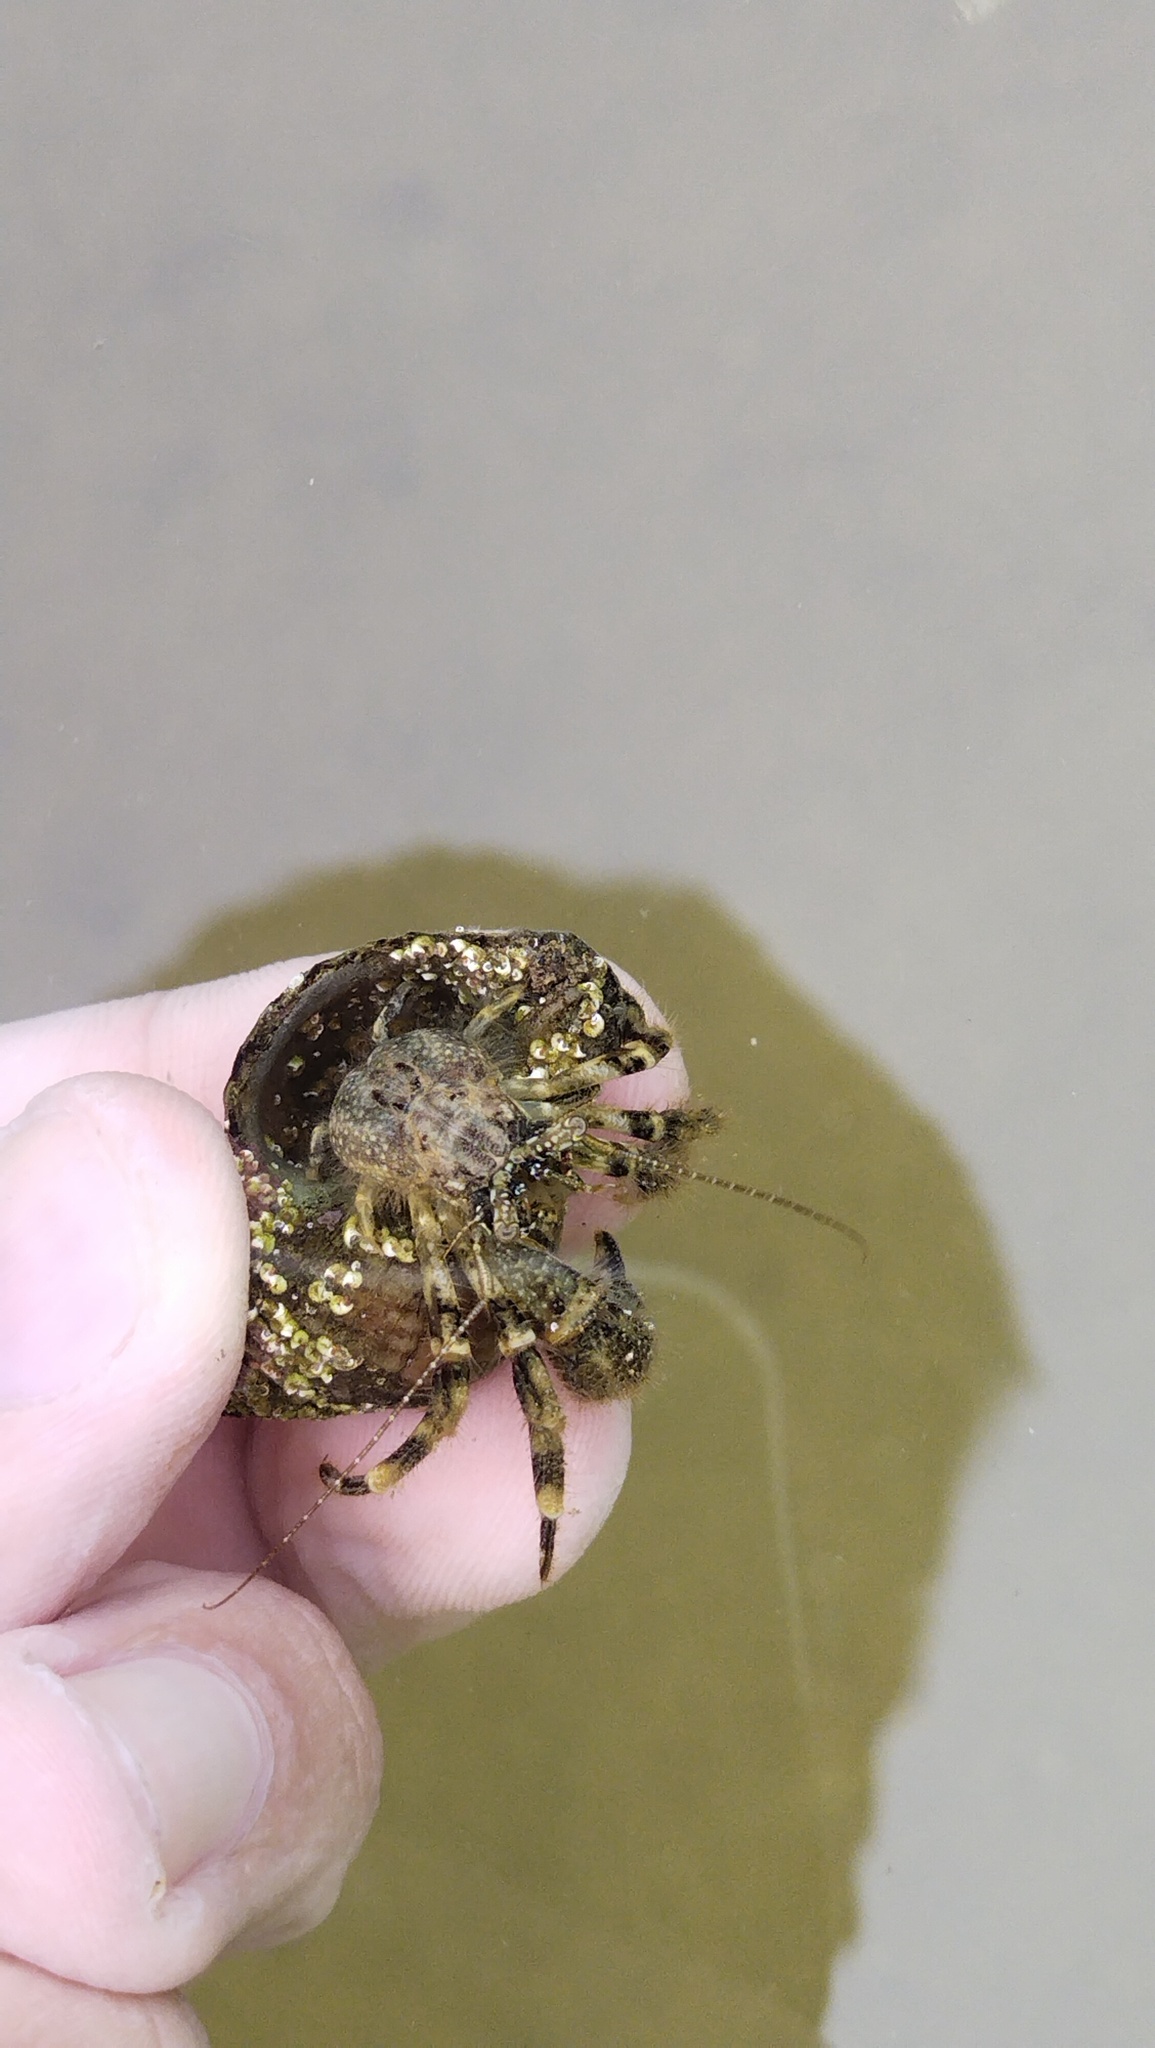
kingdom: Animalia
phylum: Arthropoda
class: Malacostraca
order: Decapoda
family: Paguridae
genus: Pagurus
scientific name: Pagurus minutus
